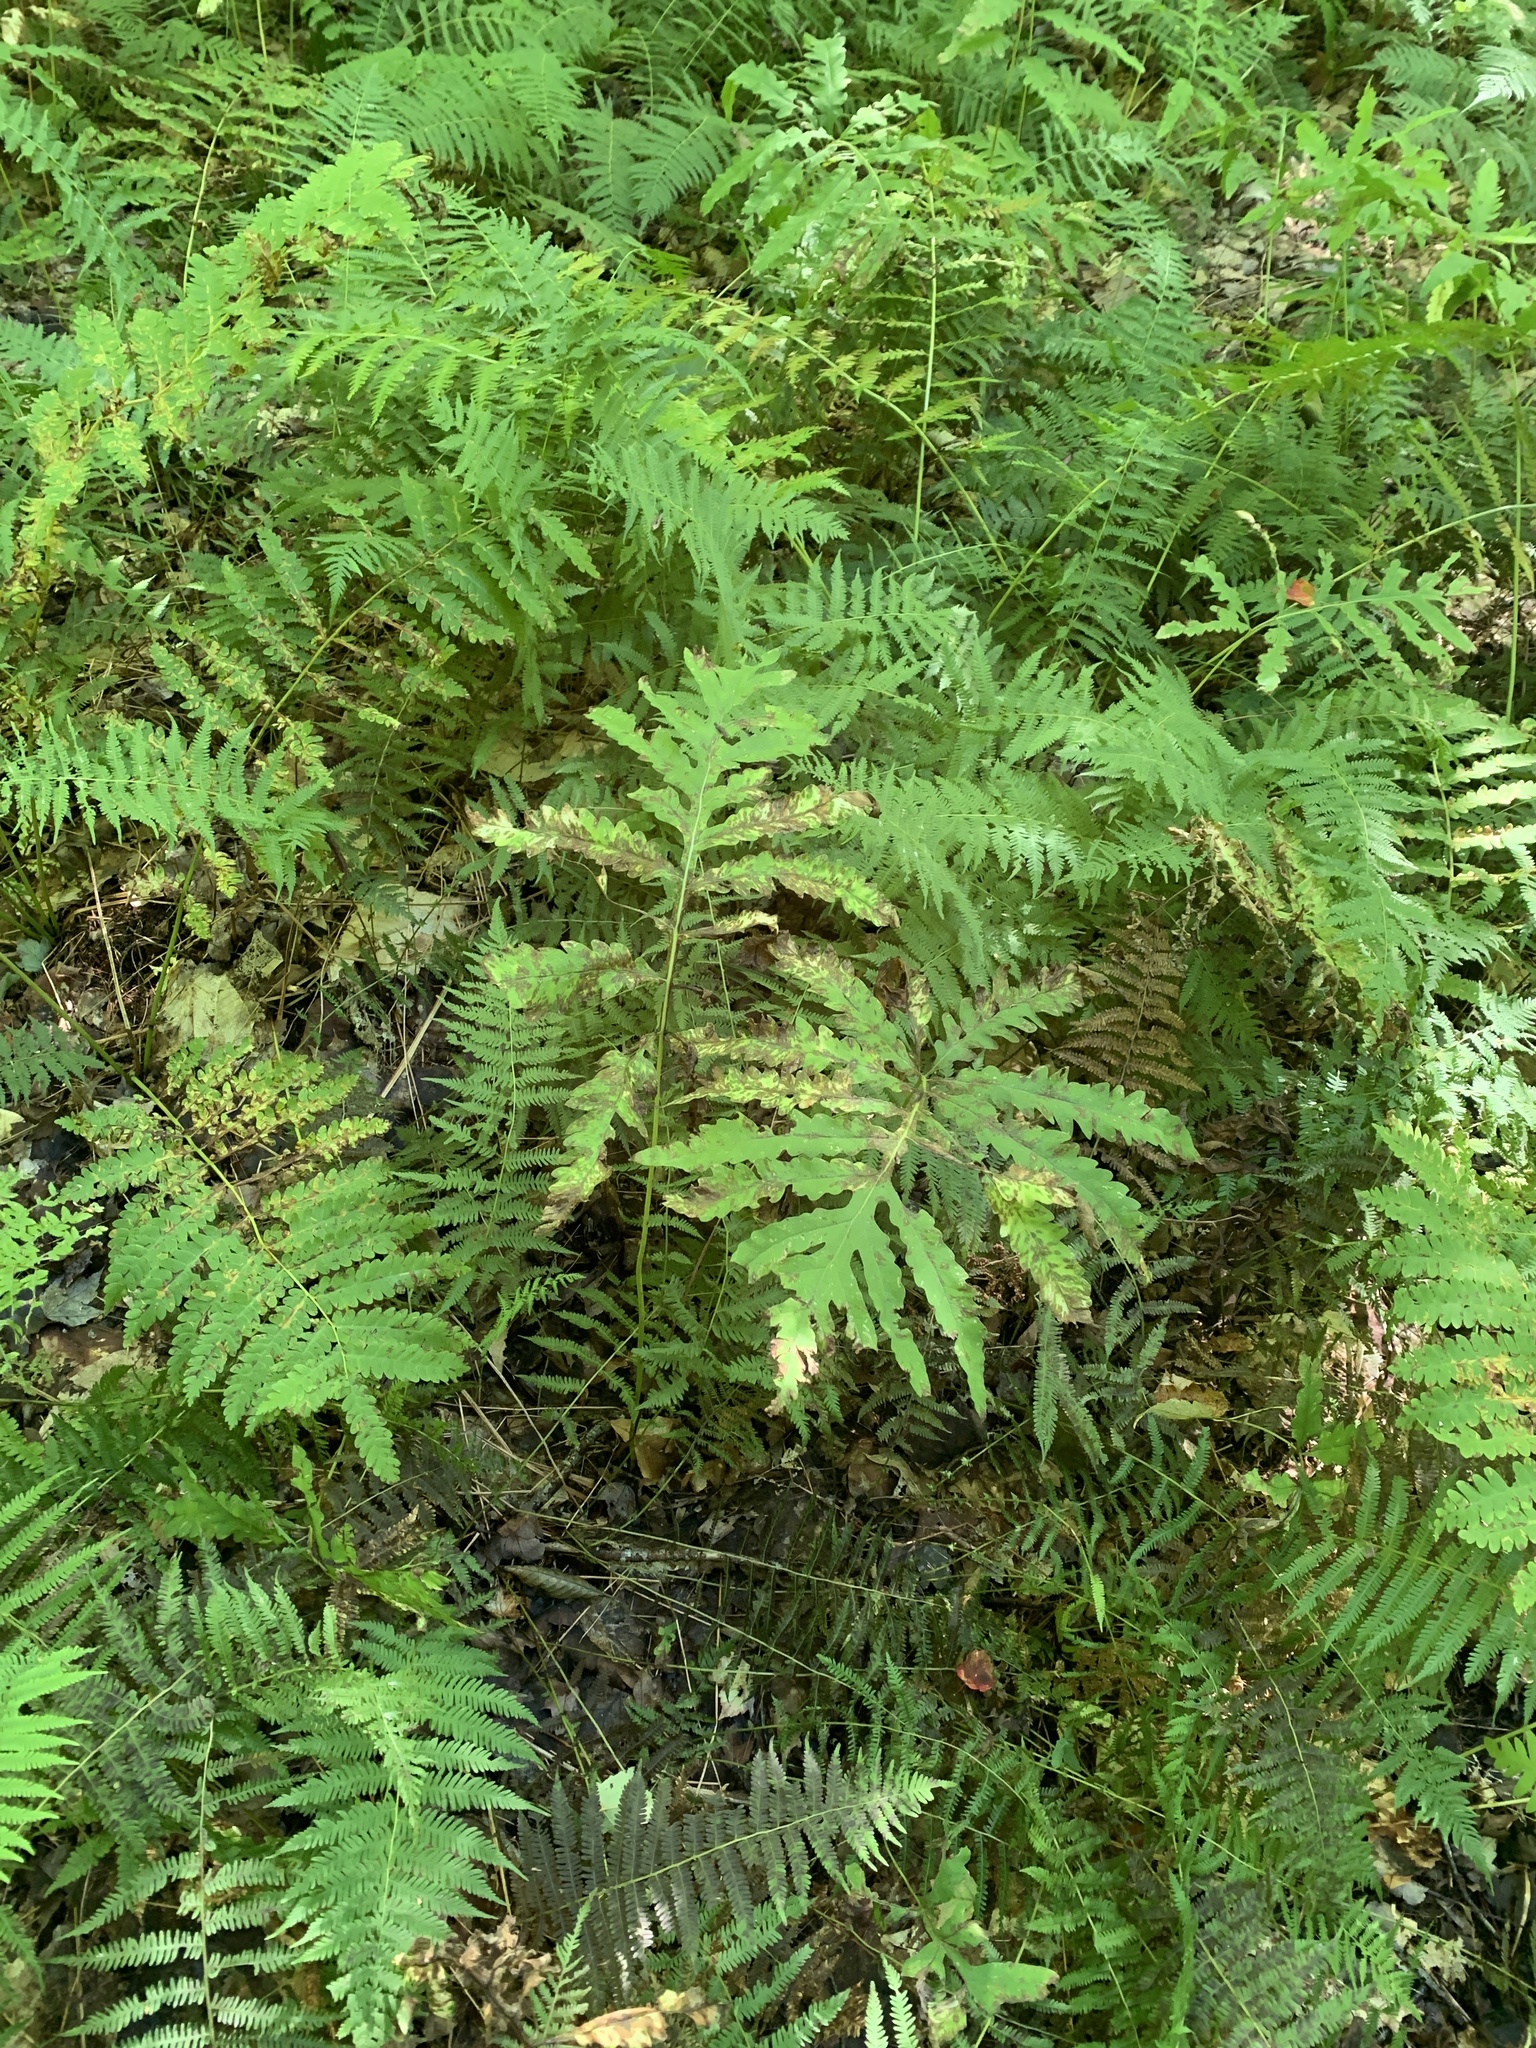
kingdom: Plantae
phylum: Tracheophyta
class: Polypodiopsida
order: Polypodiales
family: Onocleaceae
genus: Onoclea
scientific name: Onoclea sensibilis
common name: Sensitive fern
